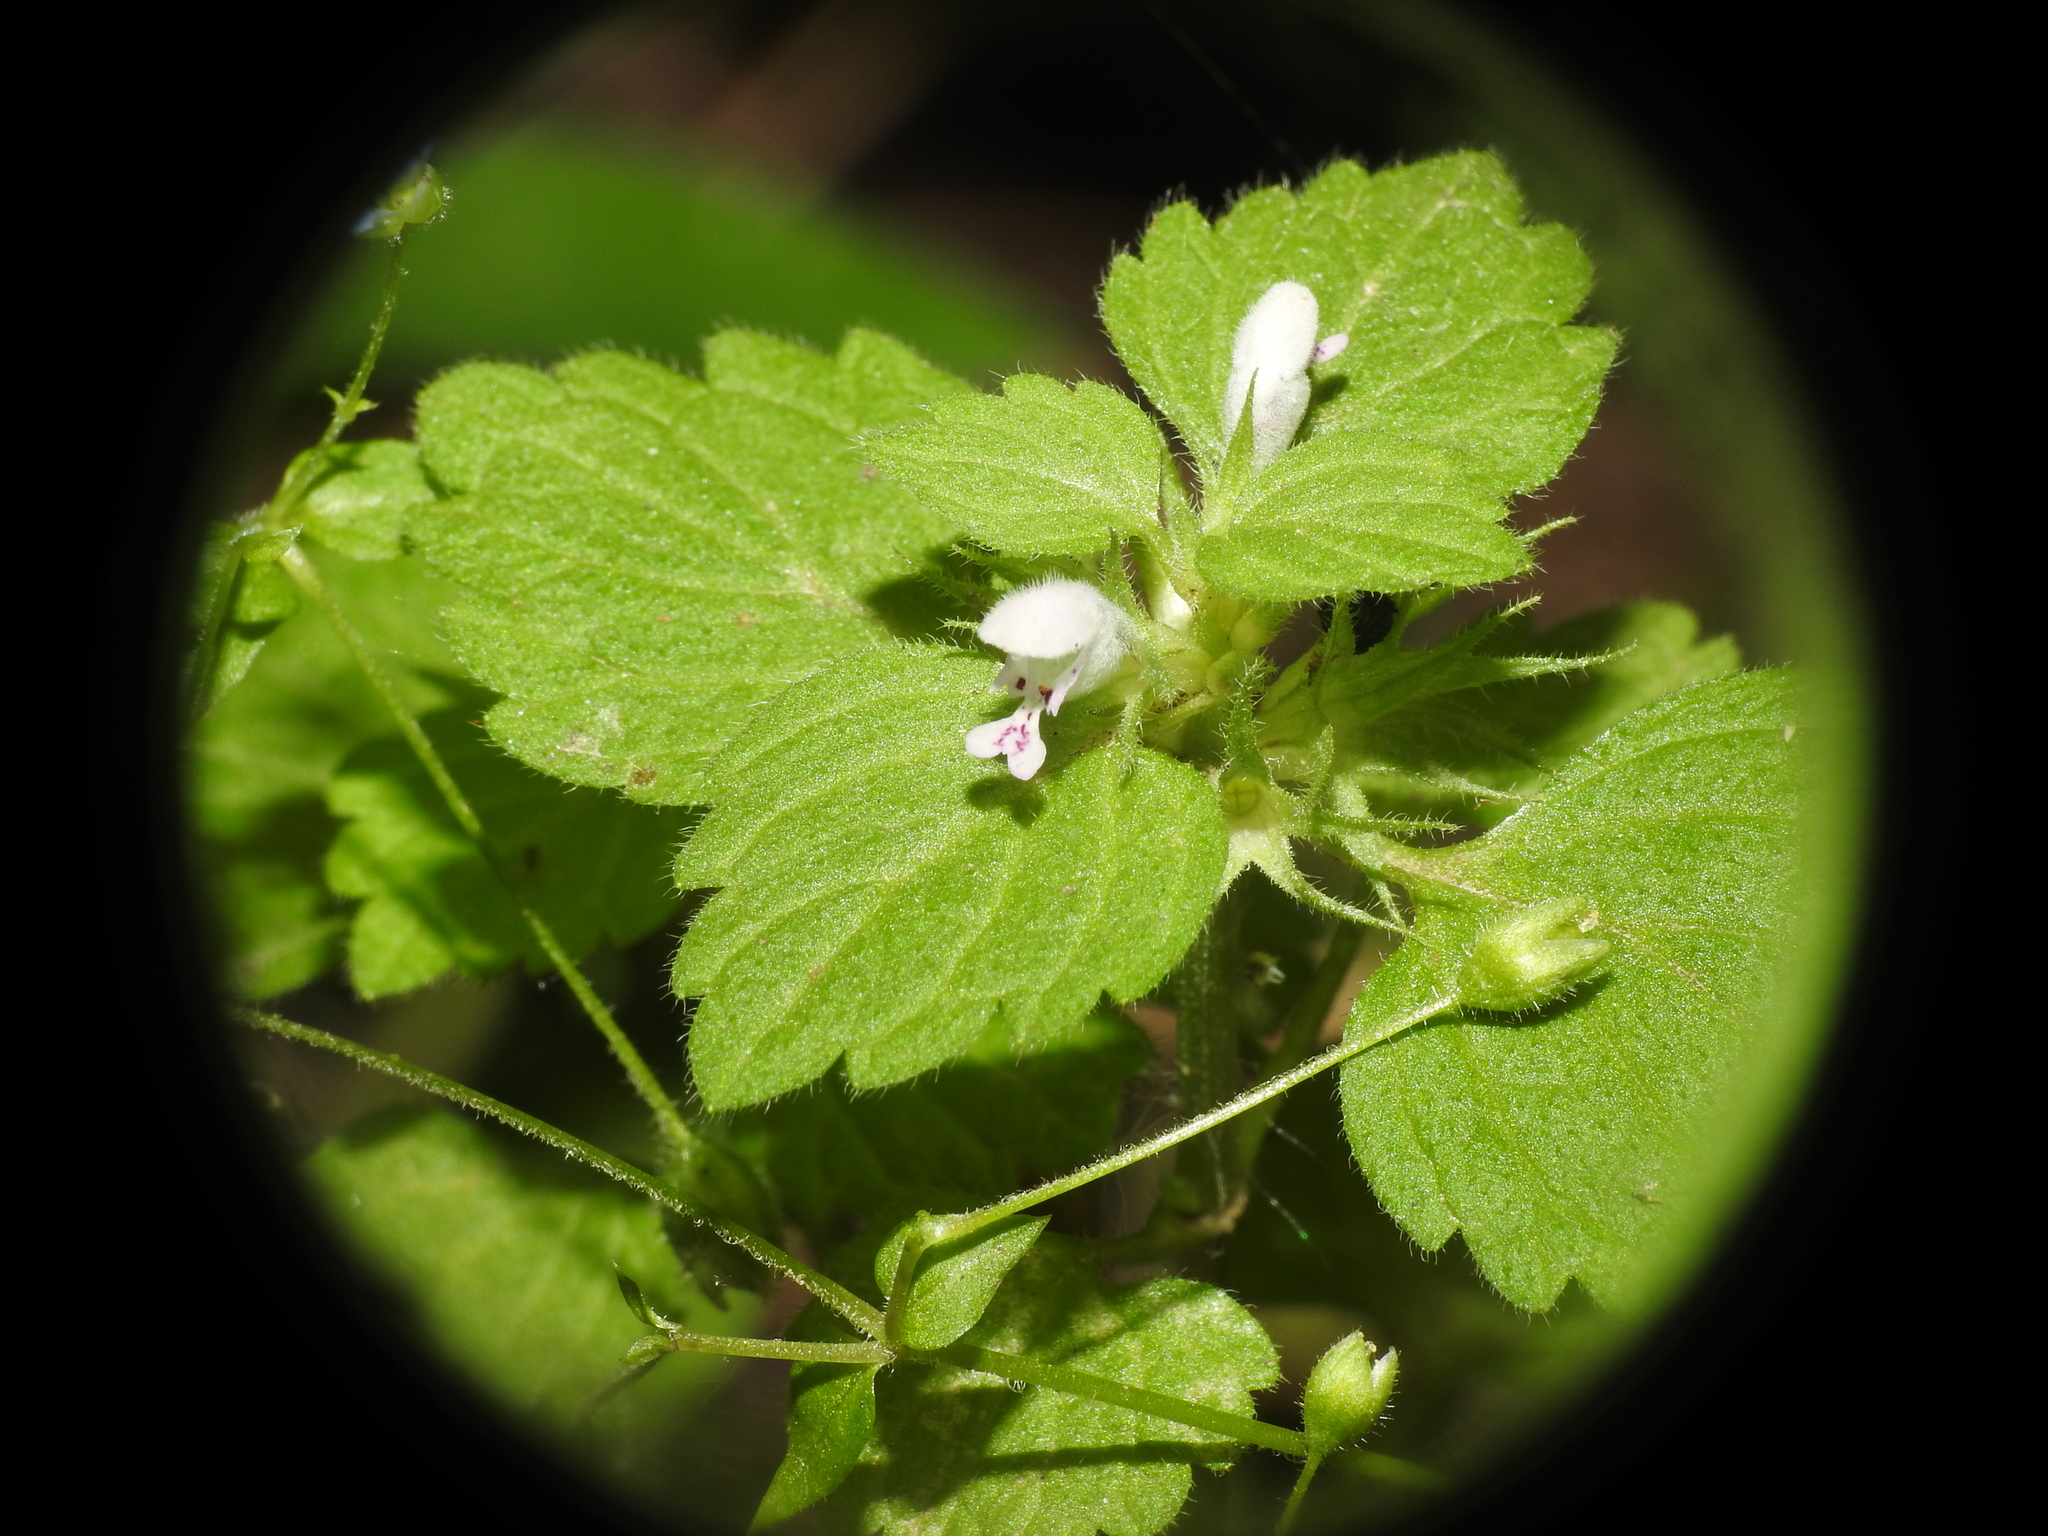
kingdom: Plantae
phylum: Tracheophyta
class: Magnoliopsida
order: Lamiales
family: Lamiaceae
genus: Lamium
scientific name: Lamium purpureum
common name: Red dead-nettle
